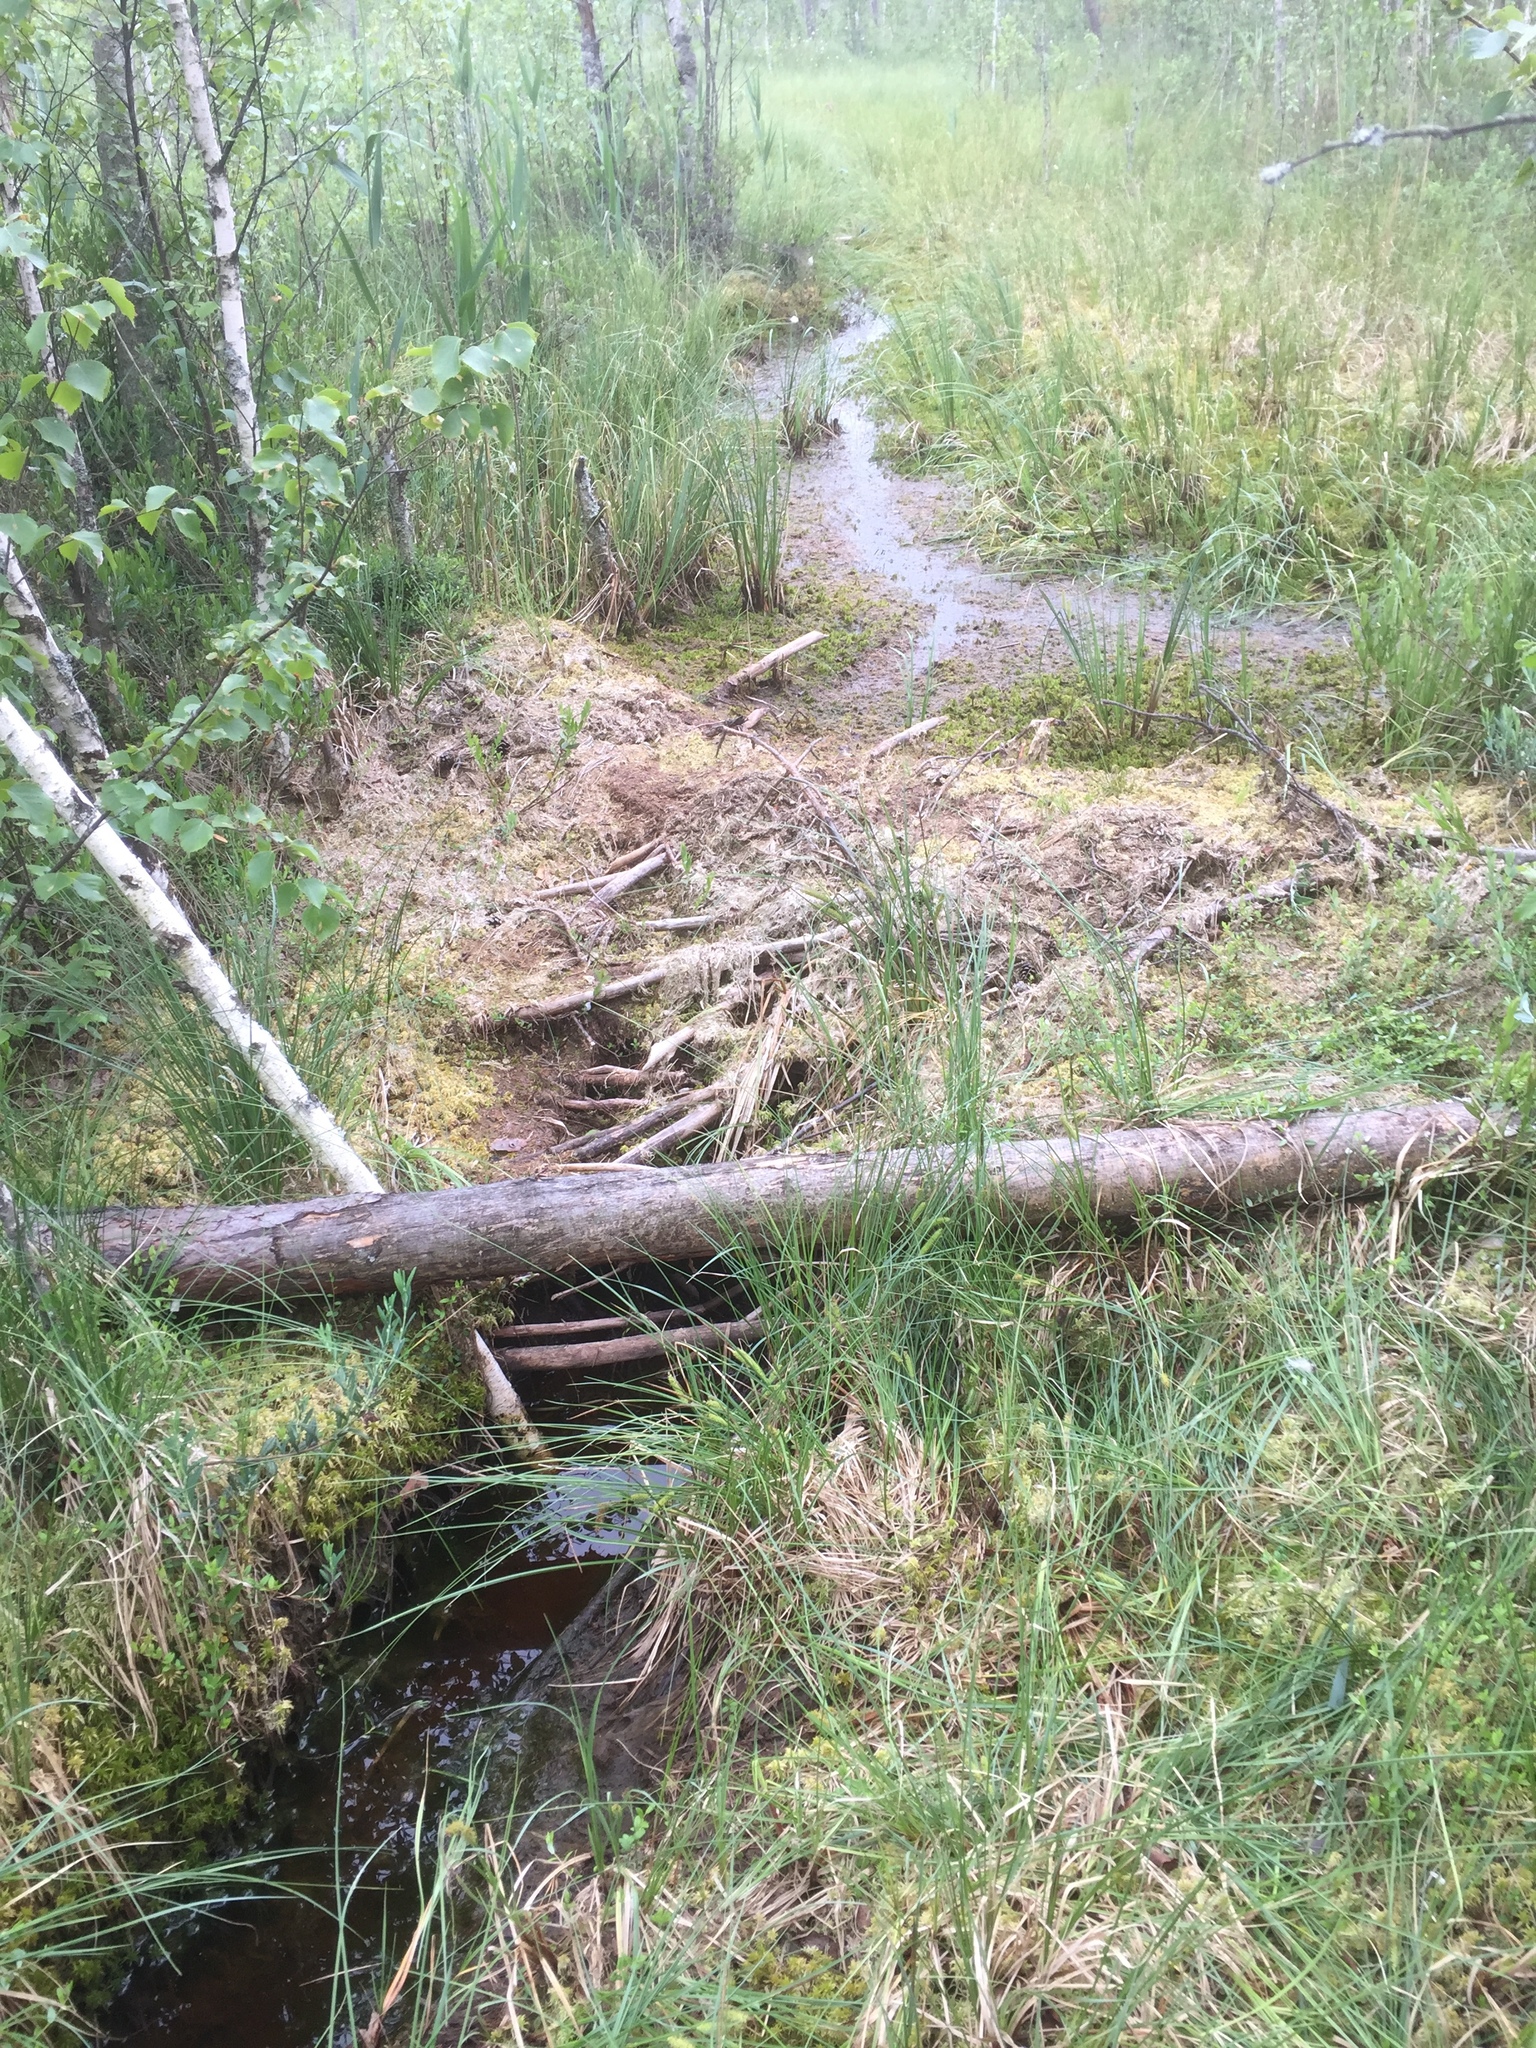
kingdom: Animalia
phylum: Chordata
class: Mammalia
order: Rodentia
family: Castoridae
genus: Castor
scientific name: Castor fiber
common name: Eurasian beaver
